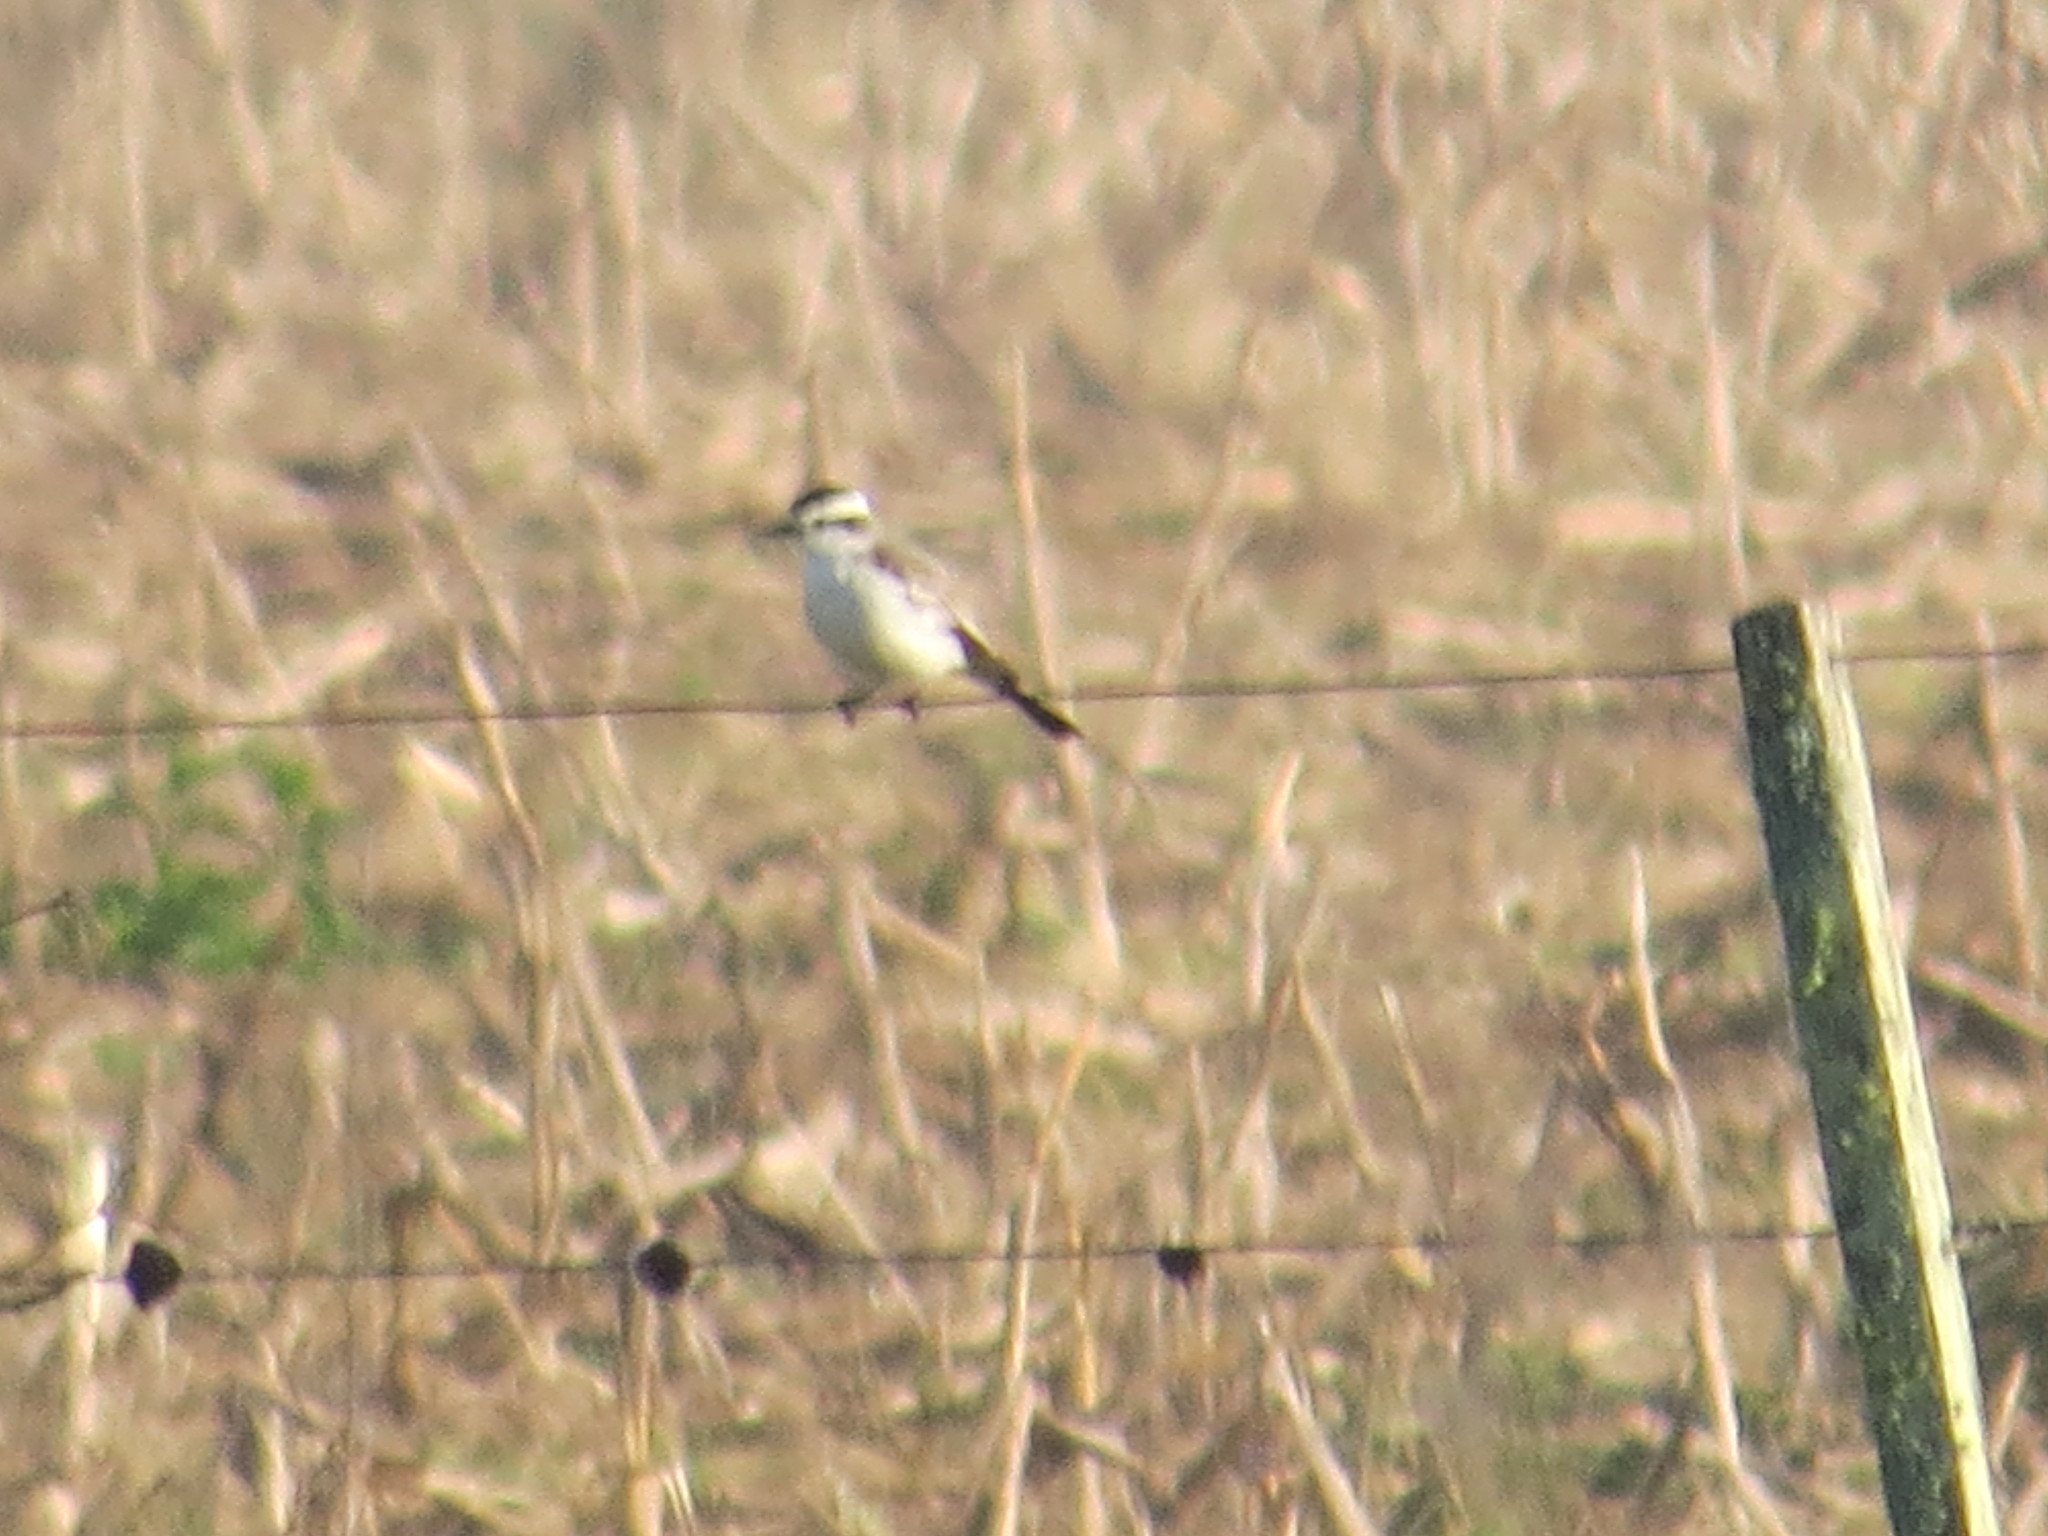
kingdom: Animalia
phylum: Chordata
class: Aves
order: Passeriformes
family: Tyrannidae
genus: Xolmis
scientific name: Xolmis coronatus
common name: Black-crowned monjita
